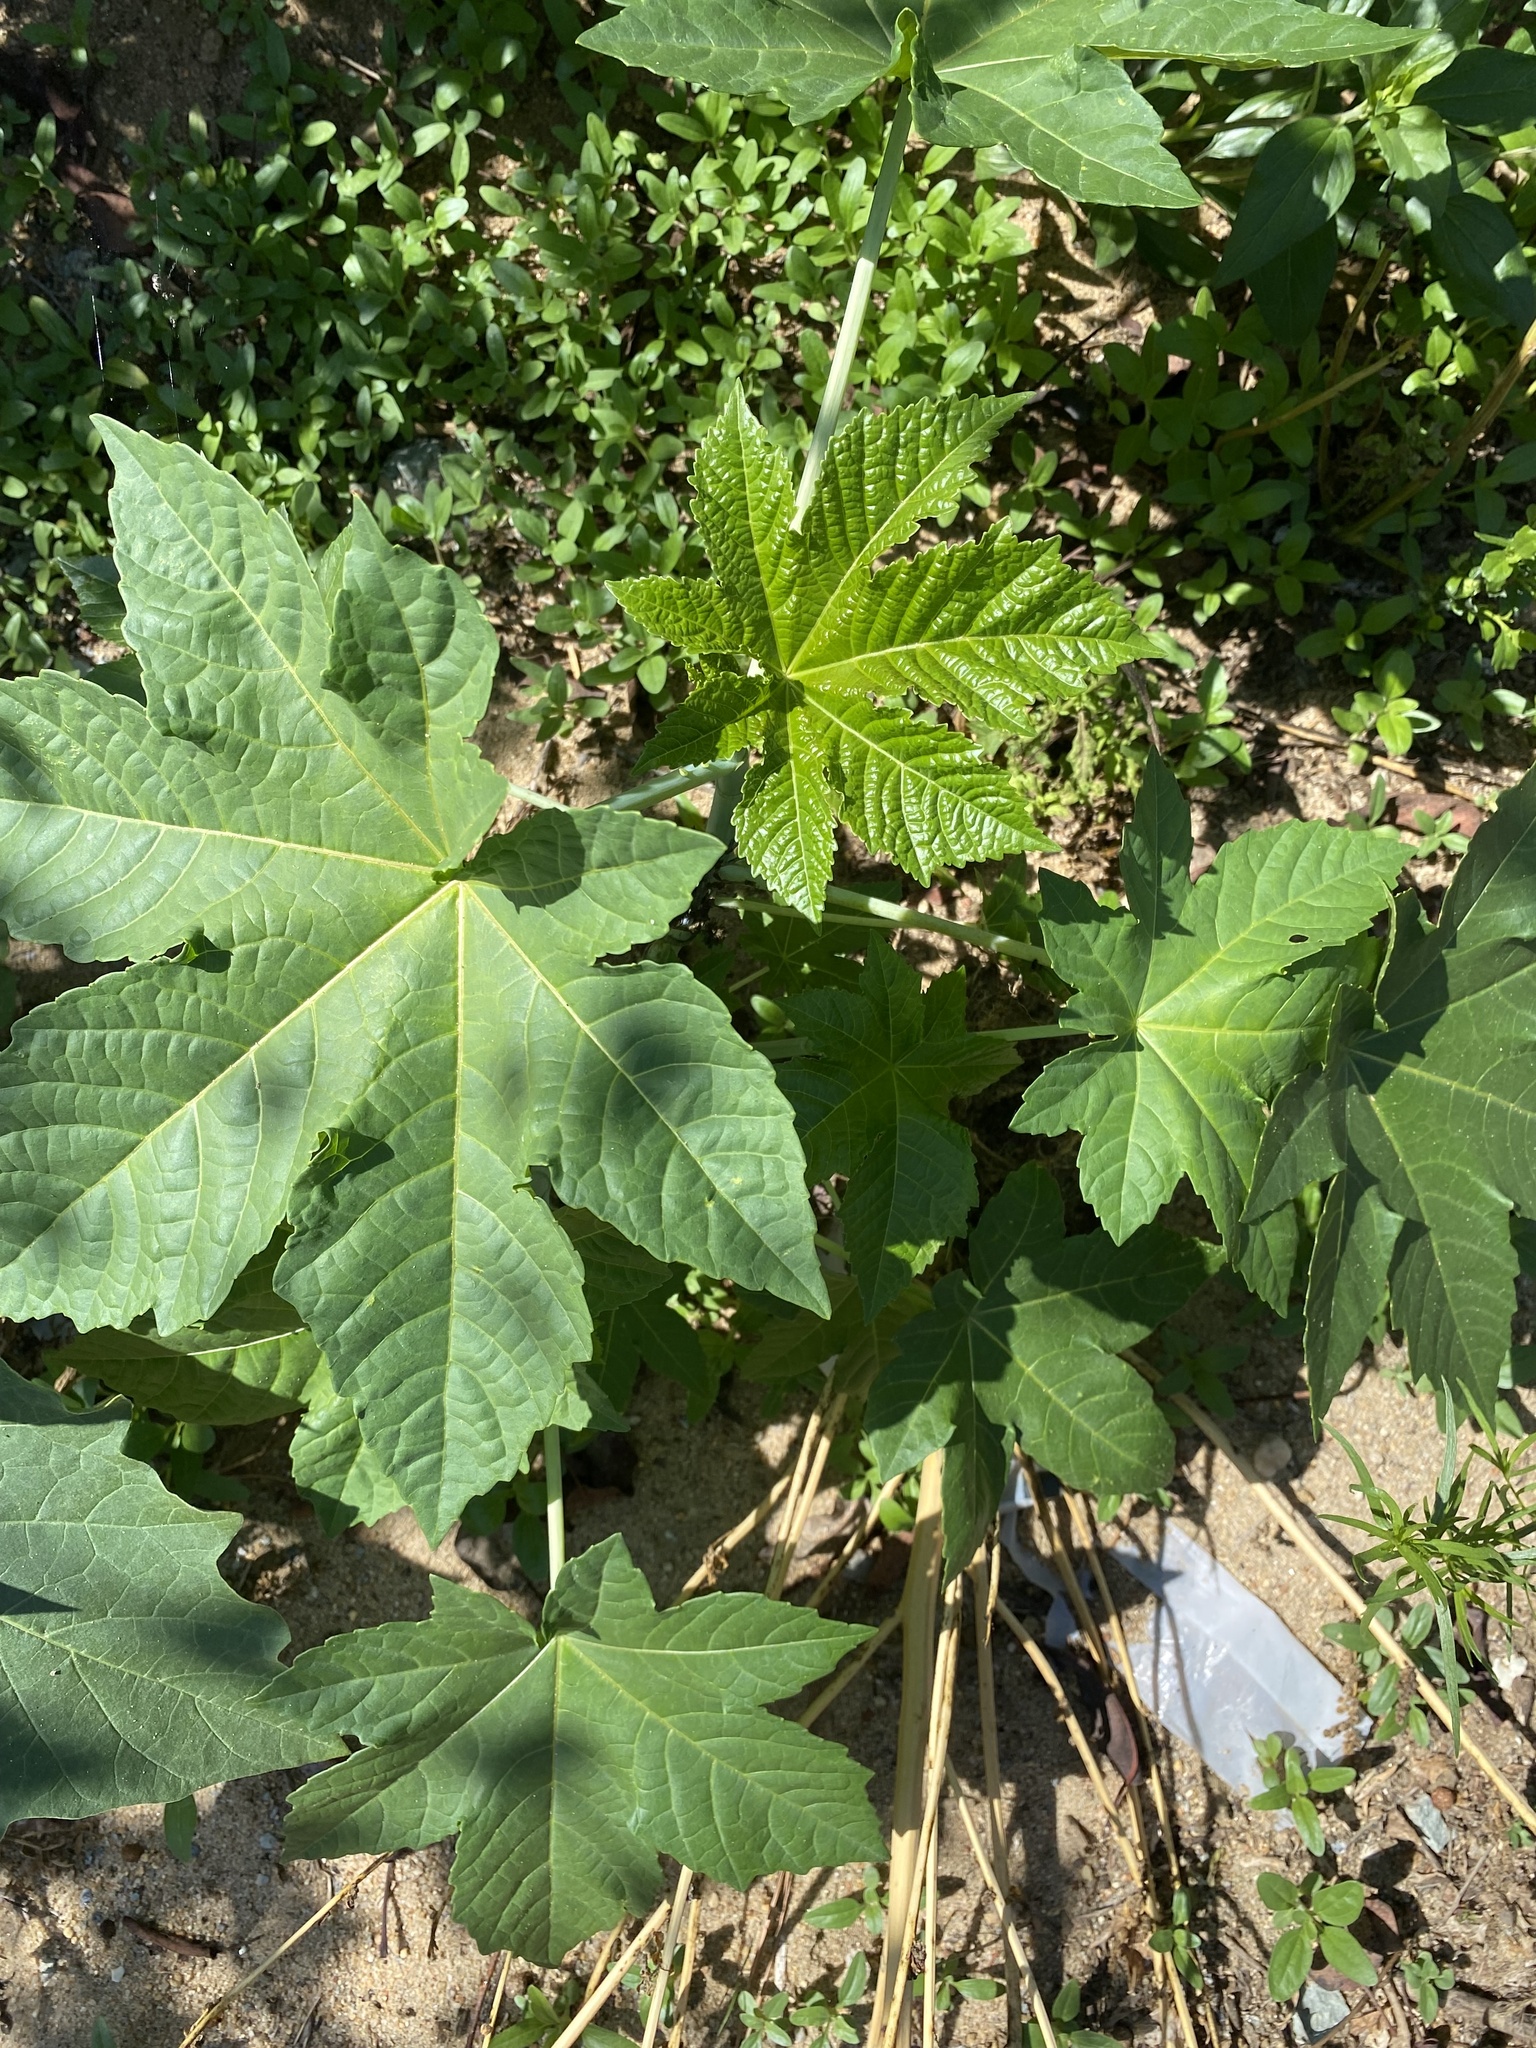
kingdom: Plantae
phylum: Tracheophyta
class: Magnoliopsida
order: Malpighiales
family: Euphorbiaceae
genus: Ricinus
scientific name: Ricinus communis
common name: Castor-oil-plant
